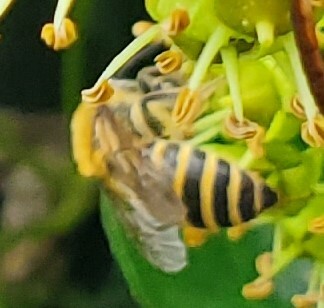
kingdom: Animalia
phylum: Arthropoda
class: Insecta
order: Hymenoptera
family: Colletidae
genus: Colletes
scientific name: Colletes hederae
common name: Ivy bee
